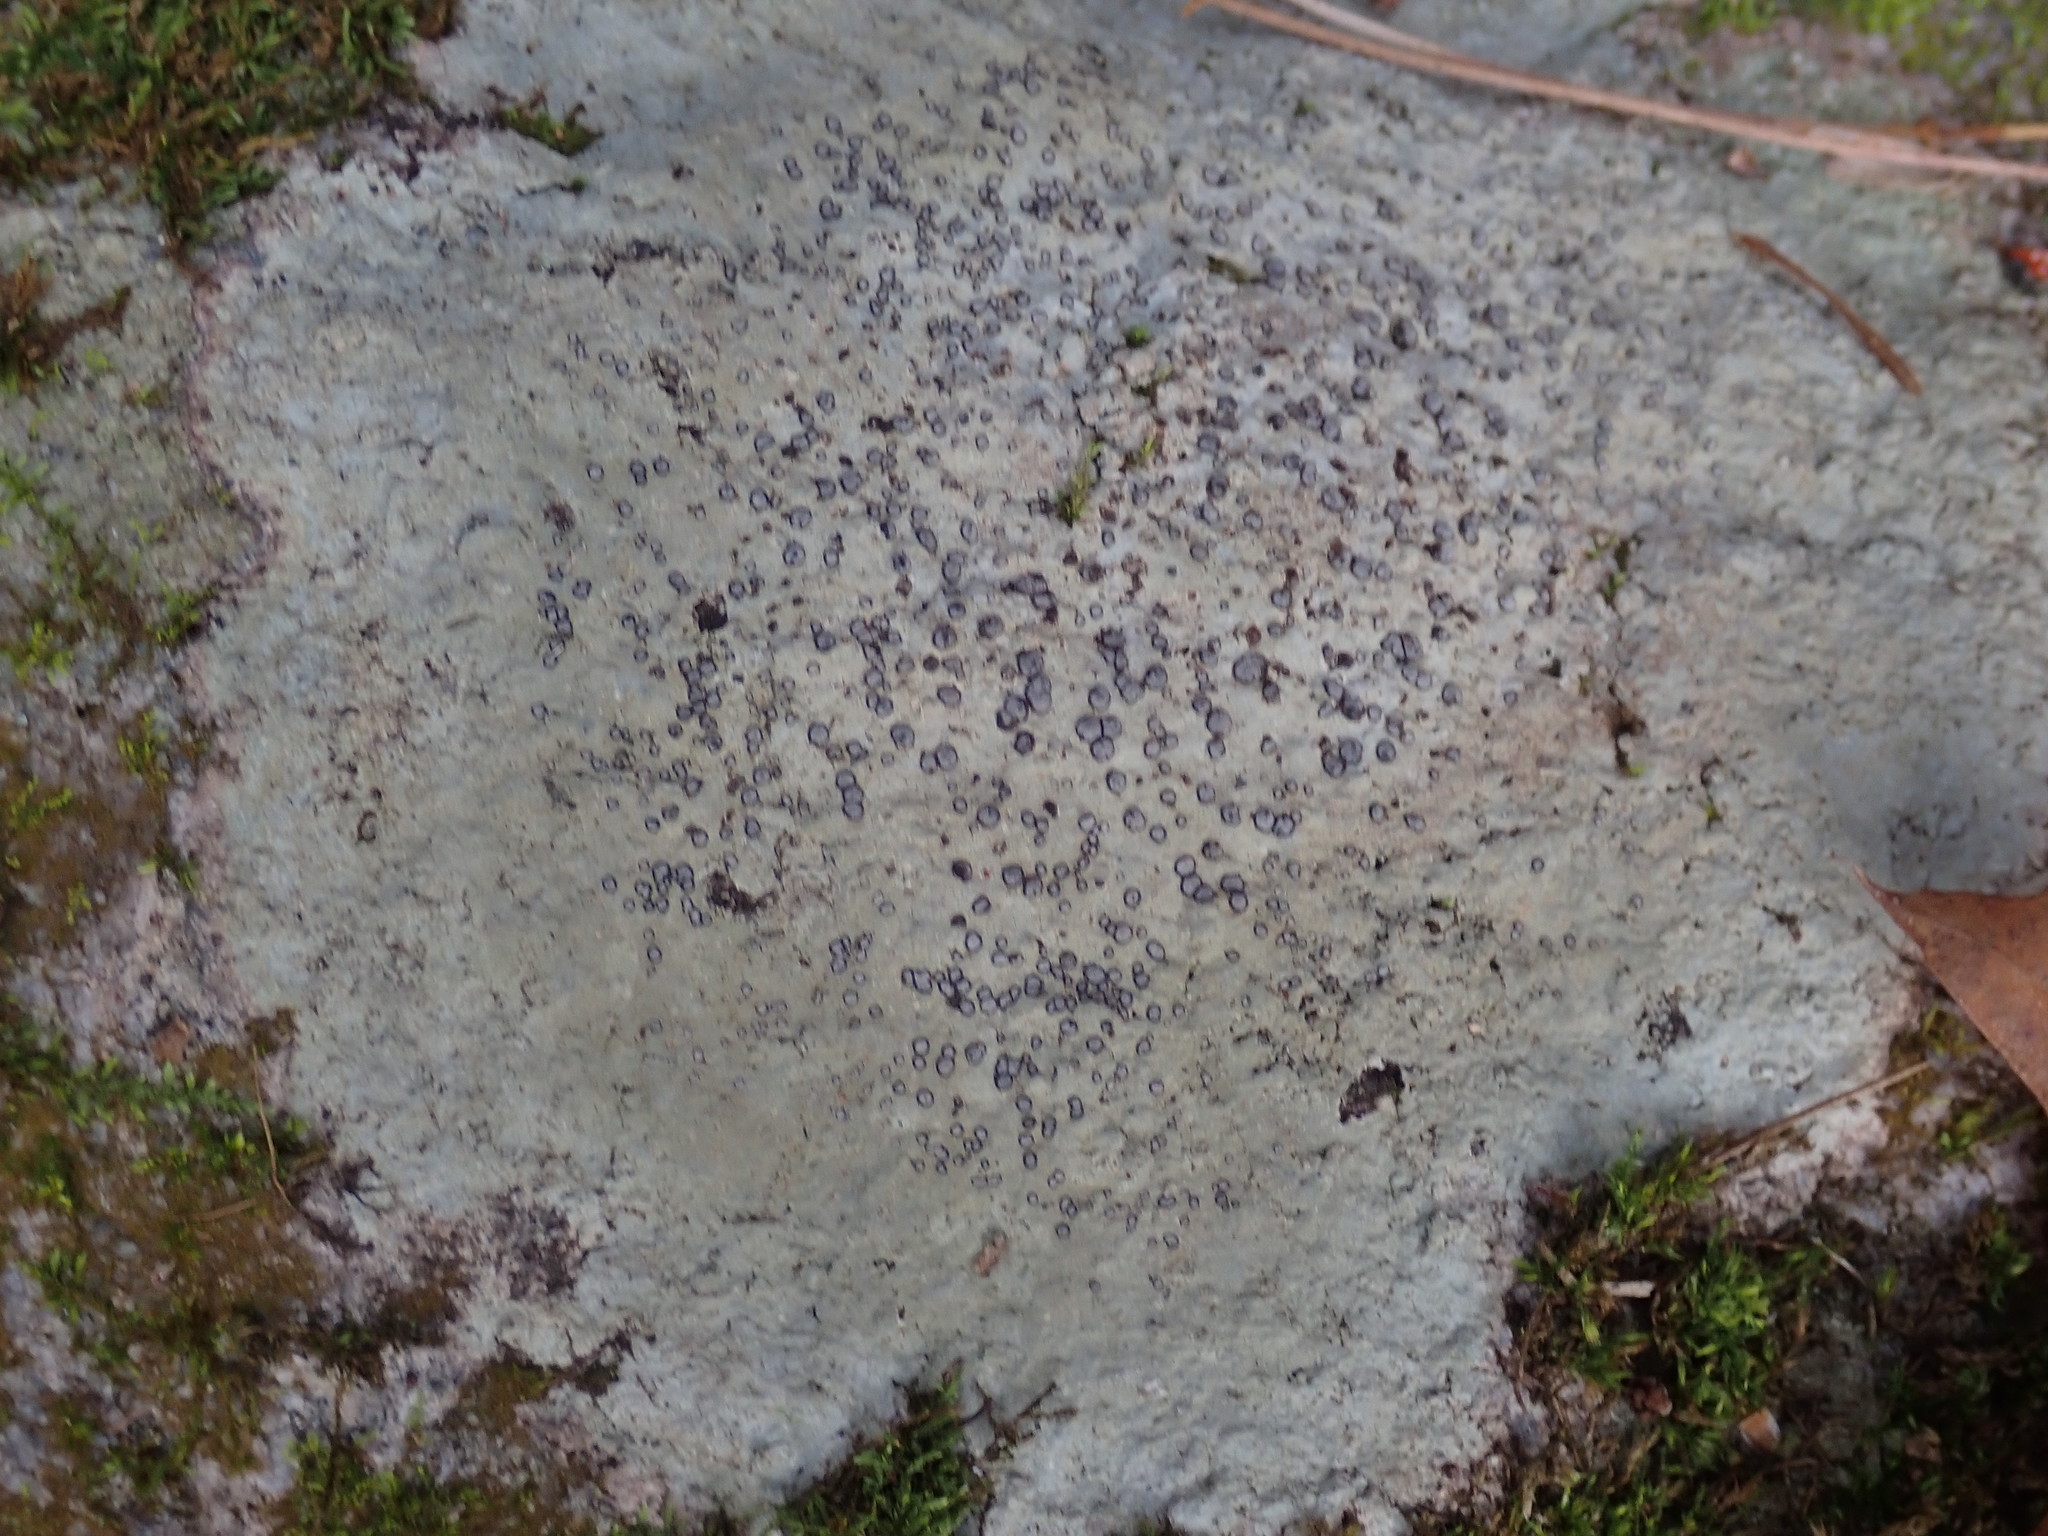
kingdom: Fungi
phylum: Ascomycota
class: Lecanoromycetes
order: Lecideales
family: Lecideaceae
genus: Porpidia
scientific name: Porpidia albocaerulescens
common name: Smokey-eyed boulder lichen
